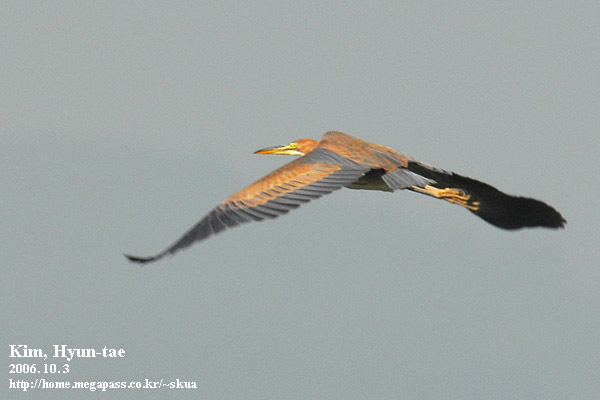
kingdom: Animalia
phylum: Chordata
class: Aves
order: Pelecaniformes
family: Ardeidae
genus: Ardea
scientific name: Ardea purpurea
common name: Purple heron
